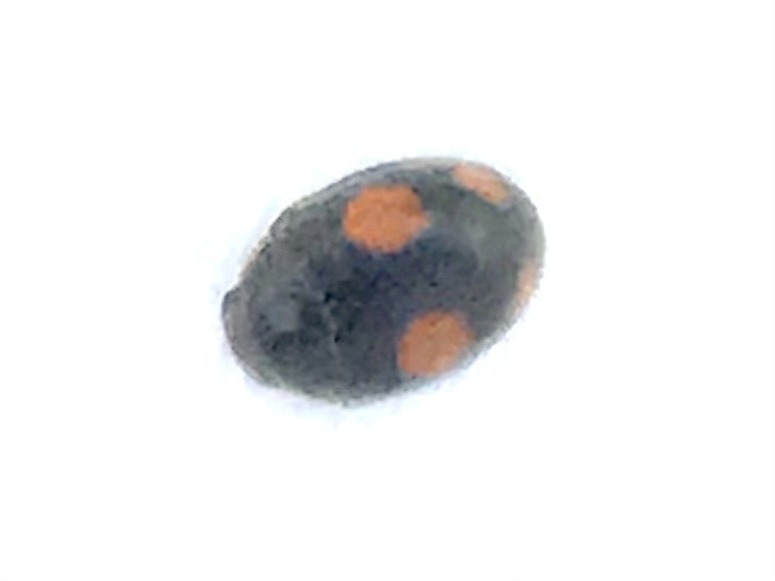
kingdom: Animalia
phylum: Arthropoda
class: Insecta
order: Coleoptera
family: Coccinellidae
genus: Platynaspis
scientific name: Platynaspis luteorubra
